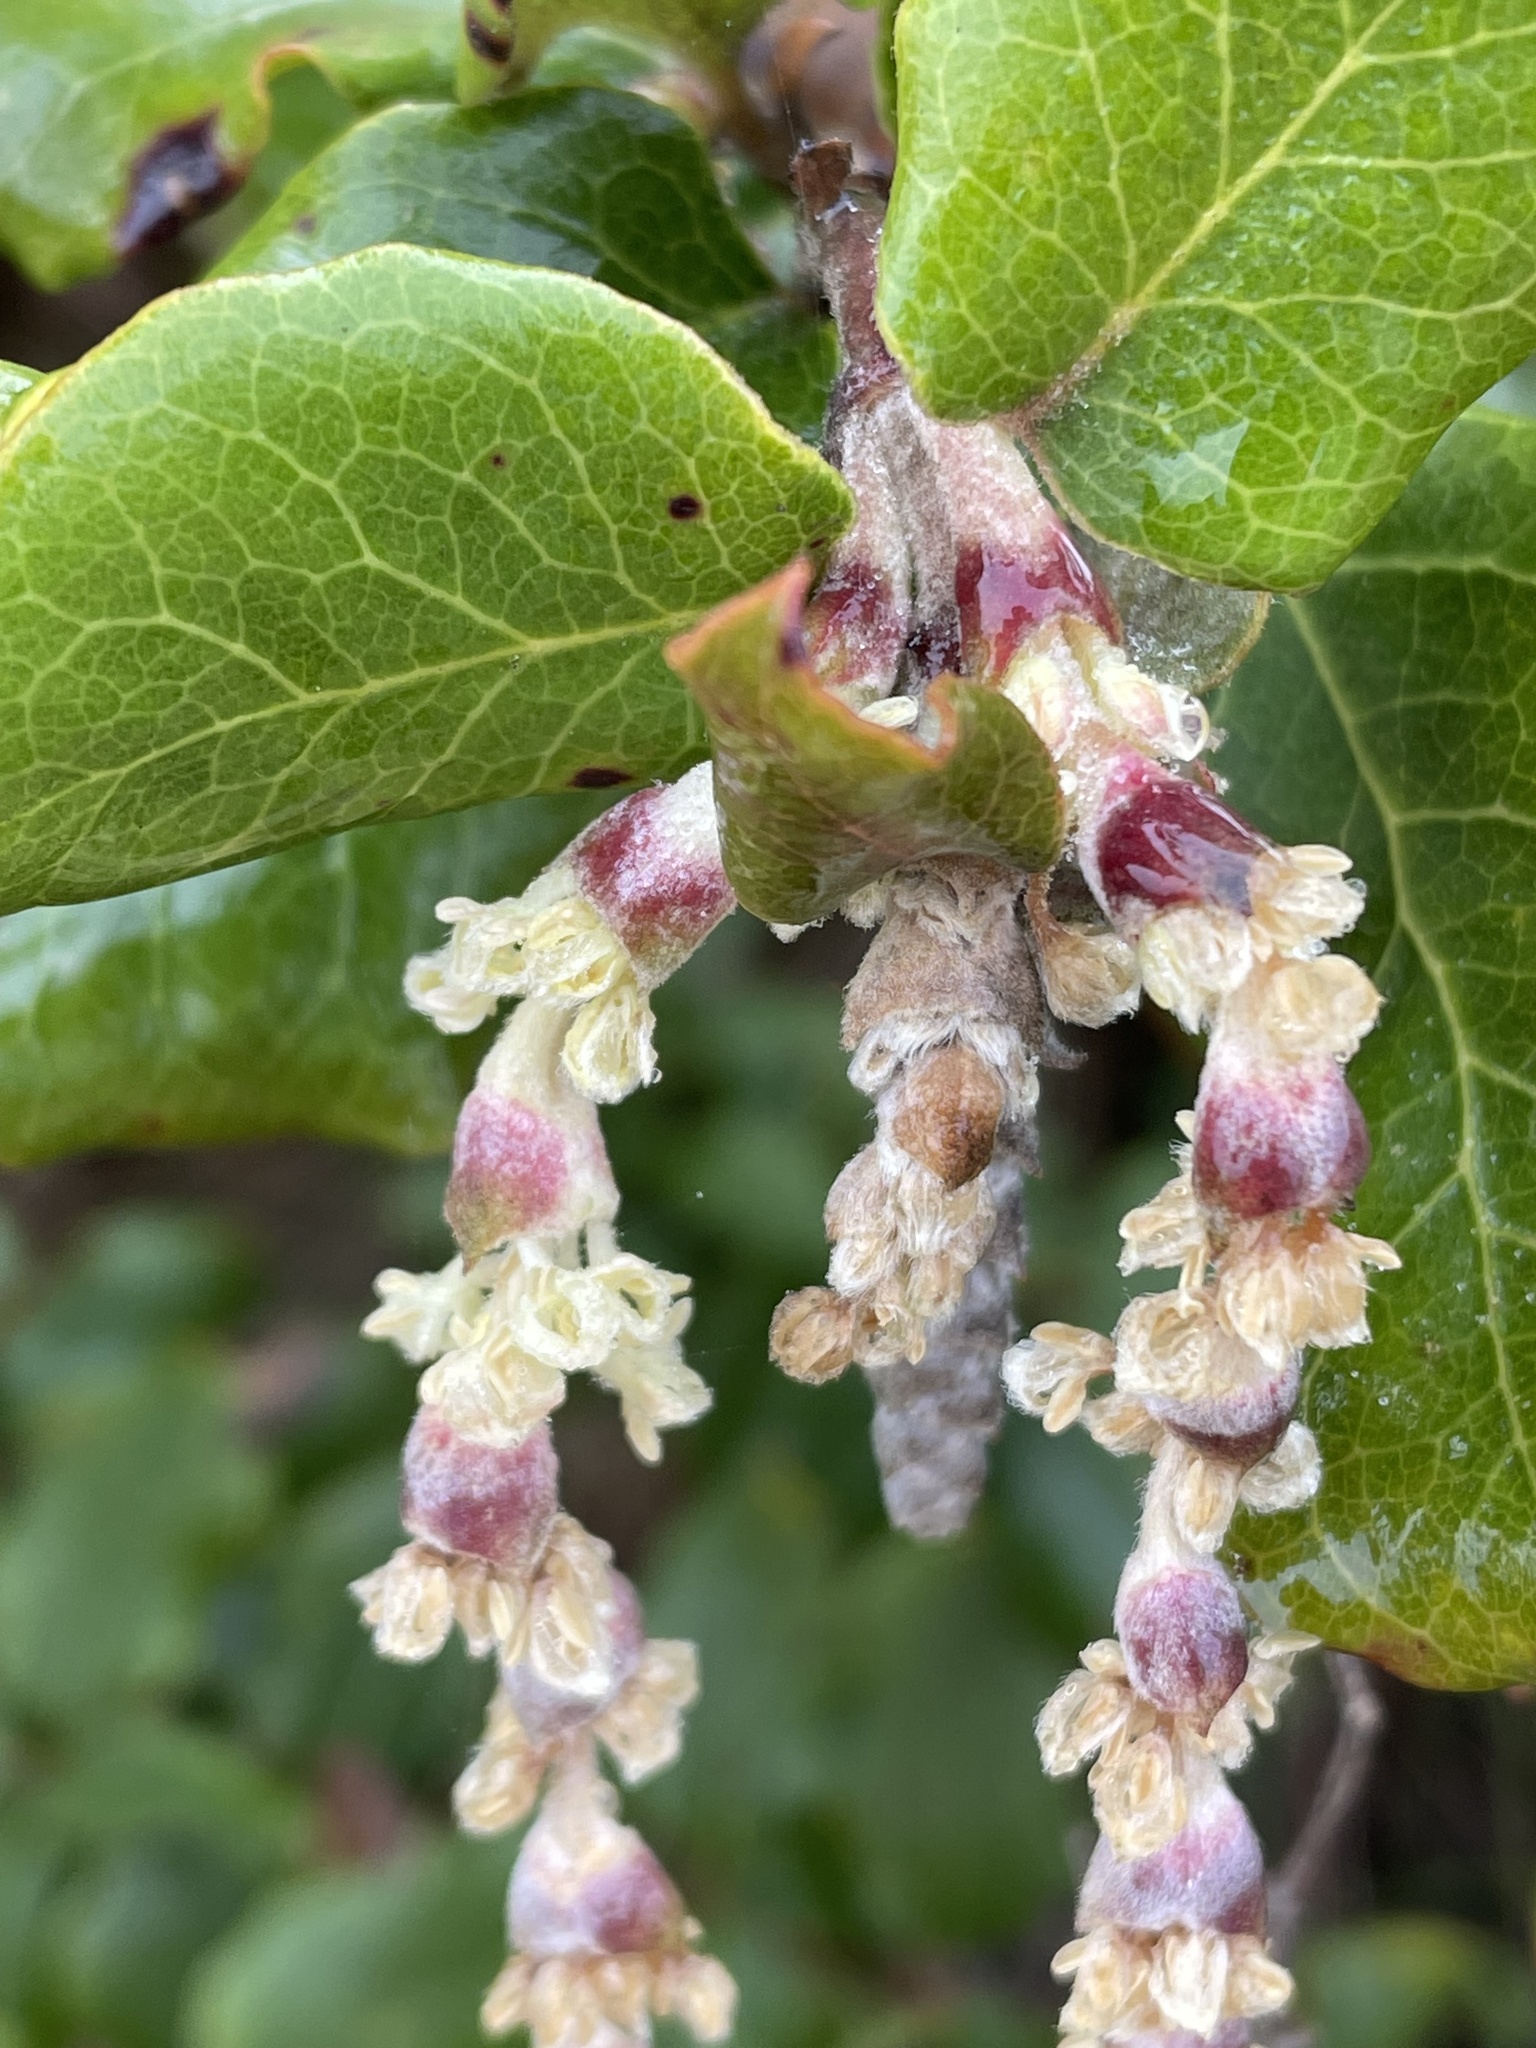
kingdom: Plantae
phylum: Tracheophyta
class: Magnoliopsida
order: Garryales
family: Garryaceae
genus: Garrya
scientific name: Garrya elliptica
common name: Silk-tassel
